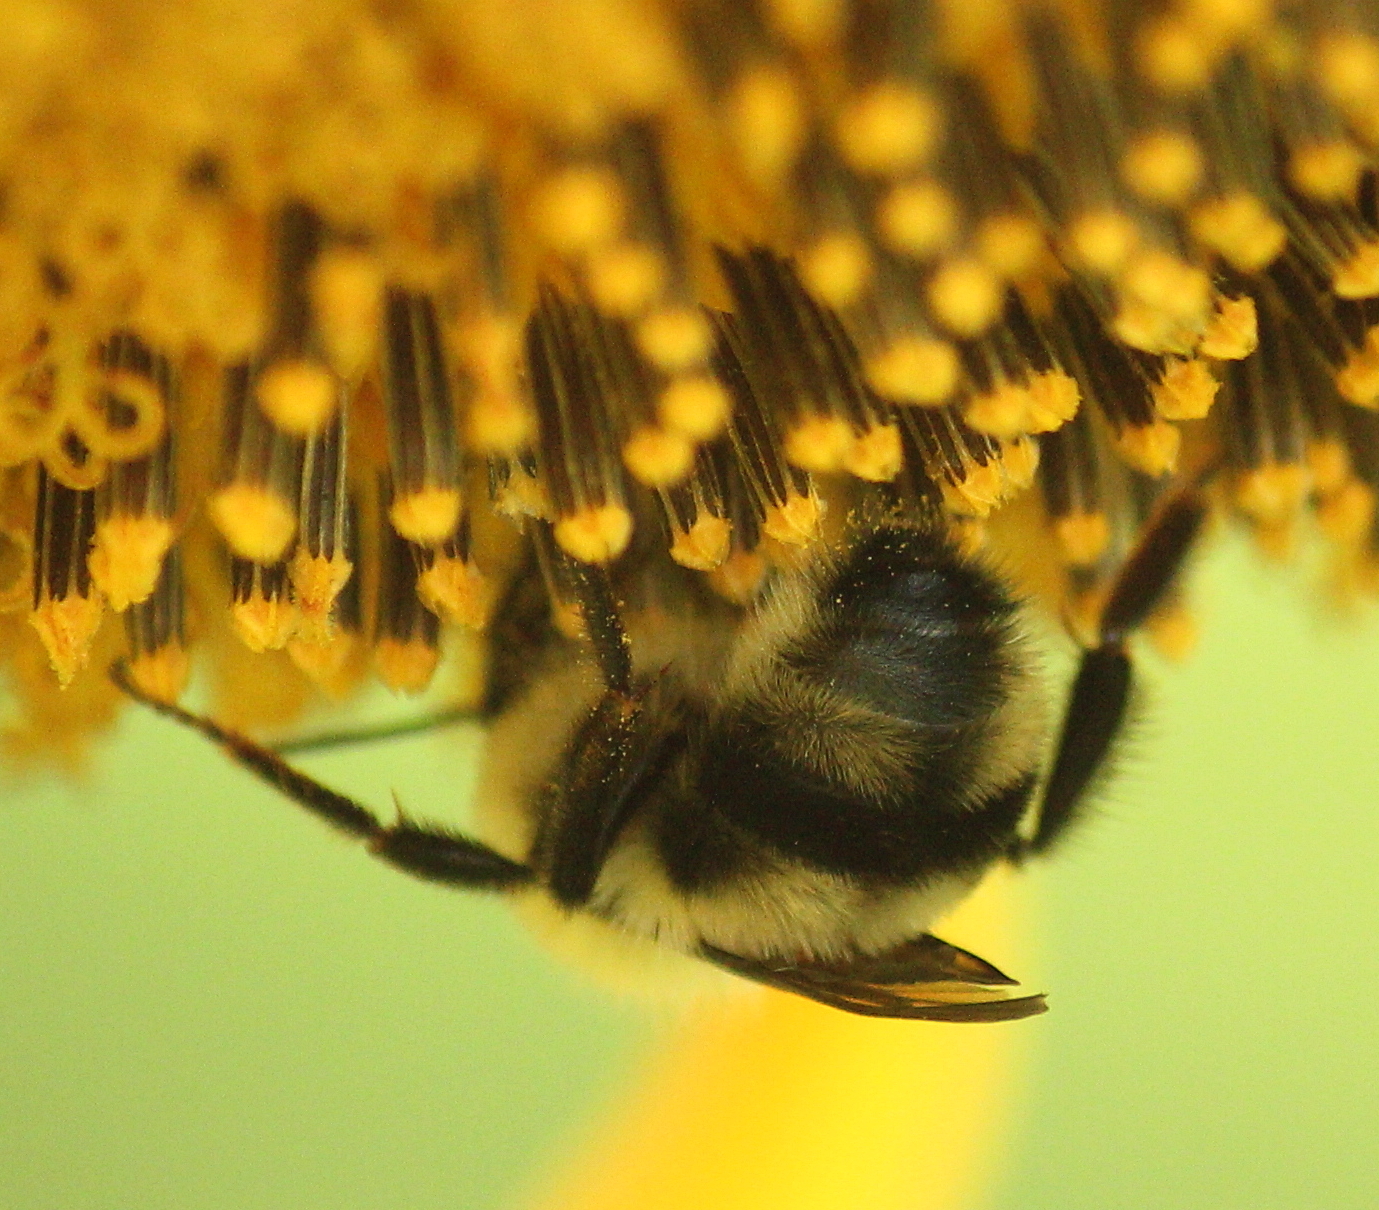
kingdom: Animalia
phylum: Arthropoda
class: Insecta
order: Hymenoptera
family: Apidae
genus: Bombus
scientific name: Bombus bimaculatus
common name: Two-spotted bumble bee
